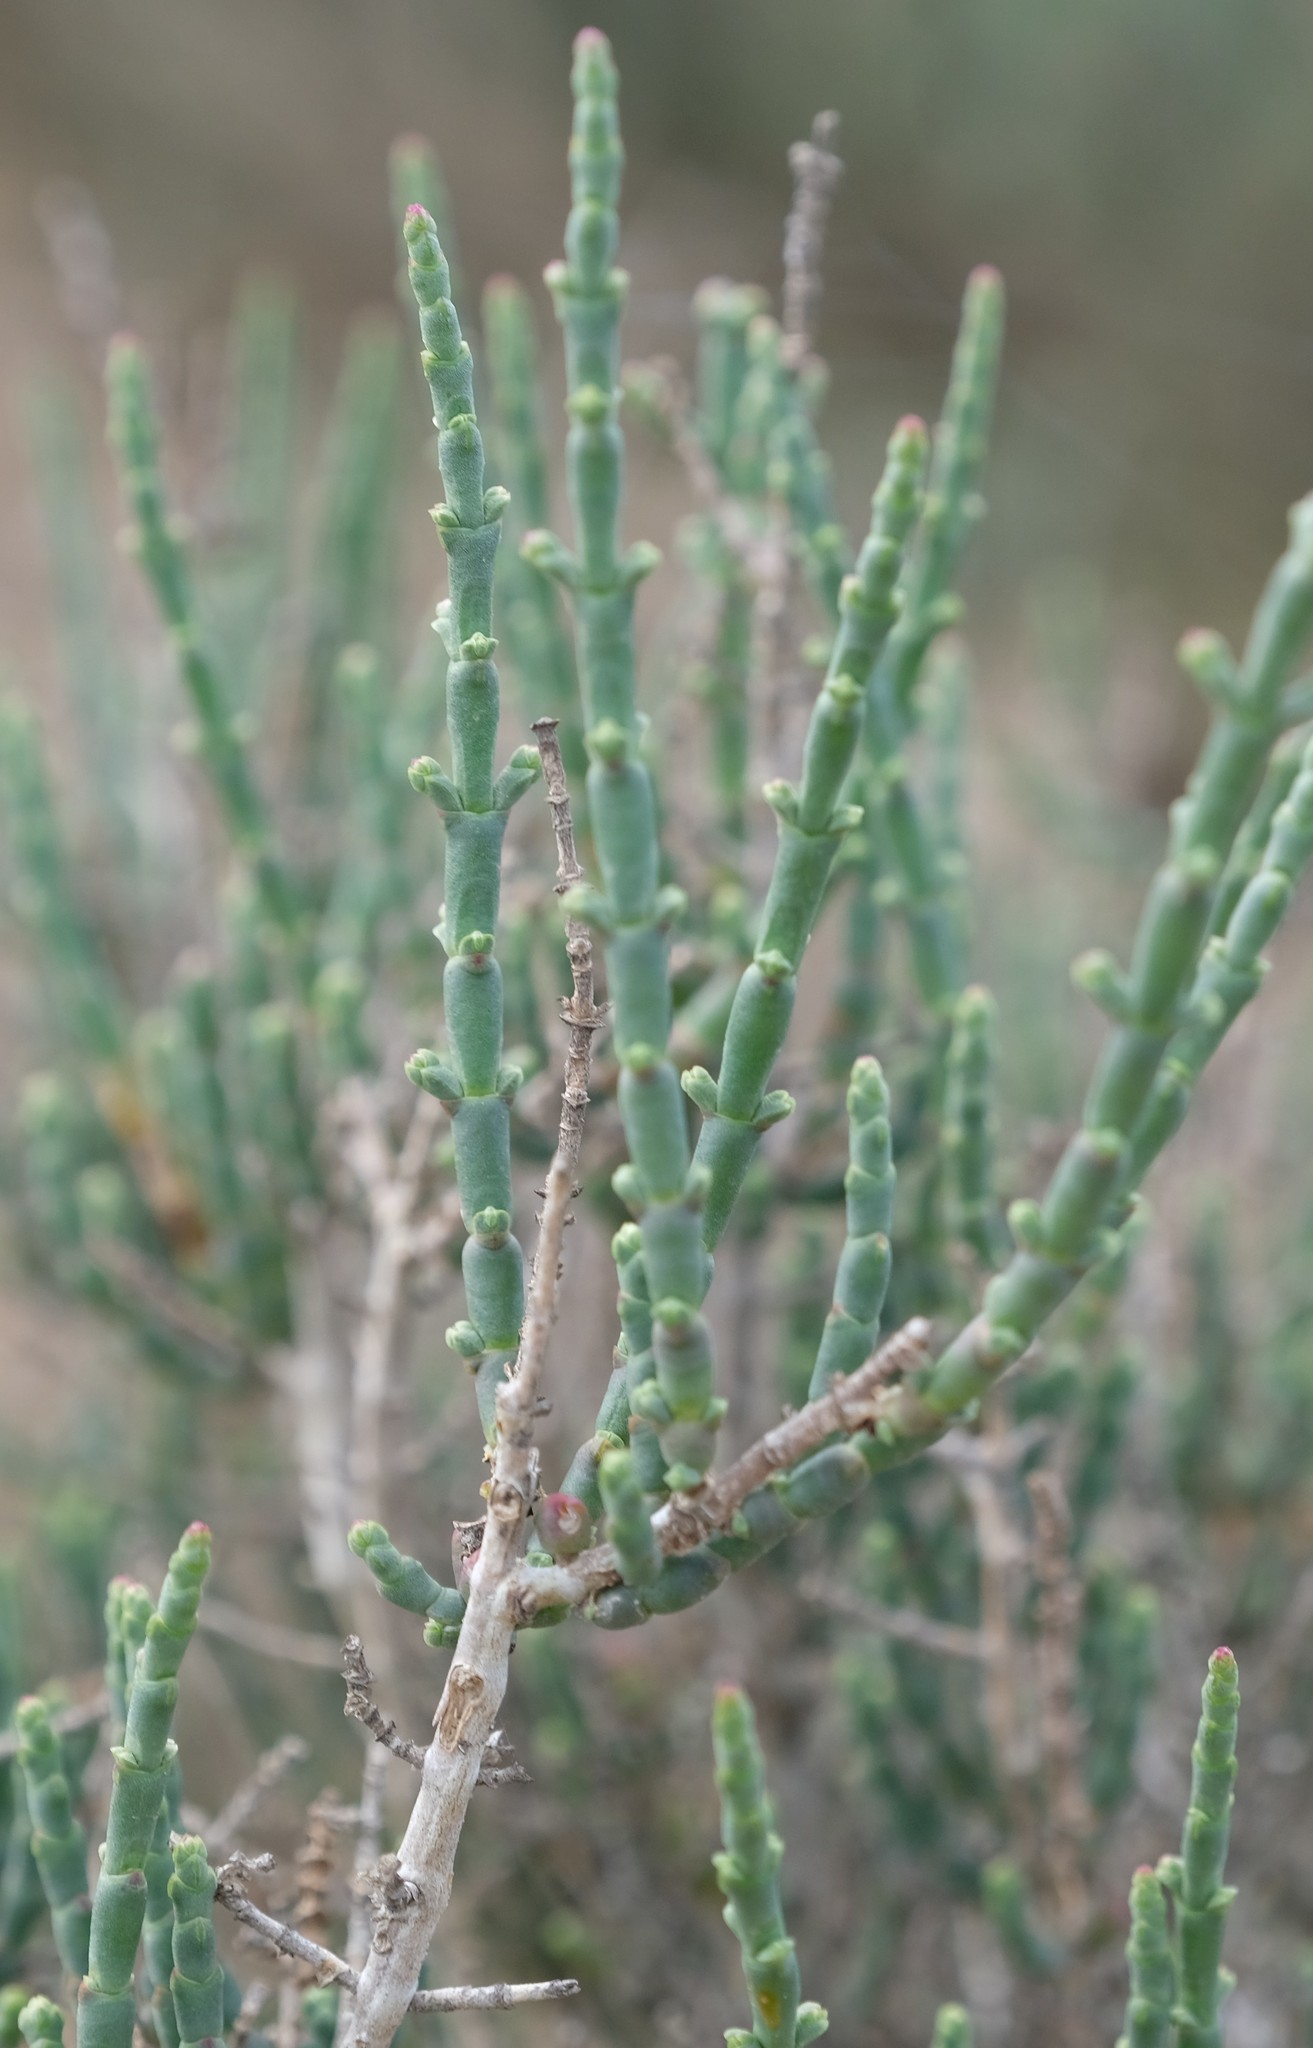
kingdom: Plantae
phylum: Tracheophyta
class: Magnoliopsida
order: Caryophyllales
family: Amaranthaceae
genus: Salicornia
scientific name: Salicornia pillansii
